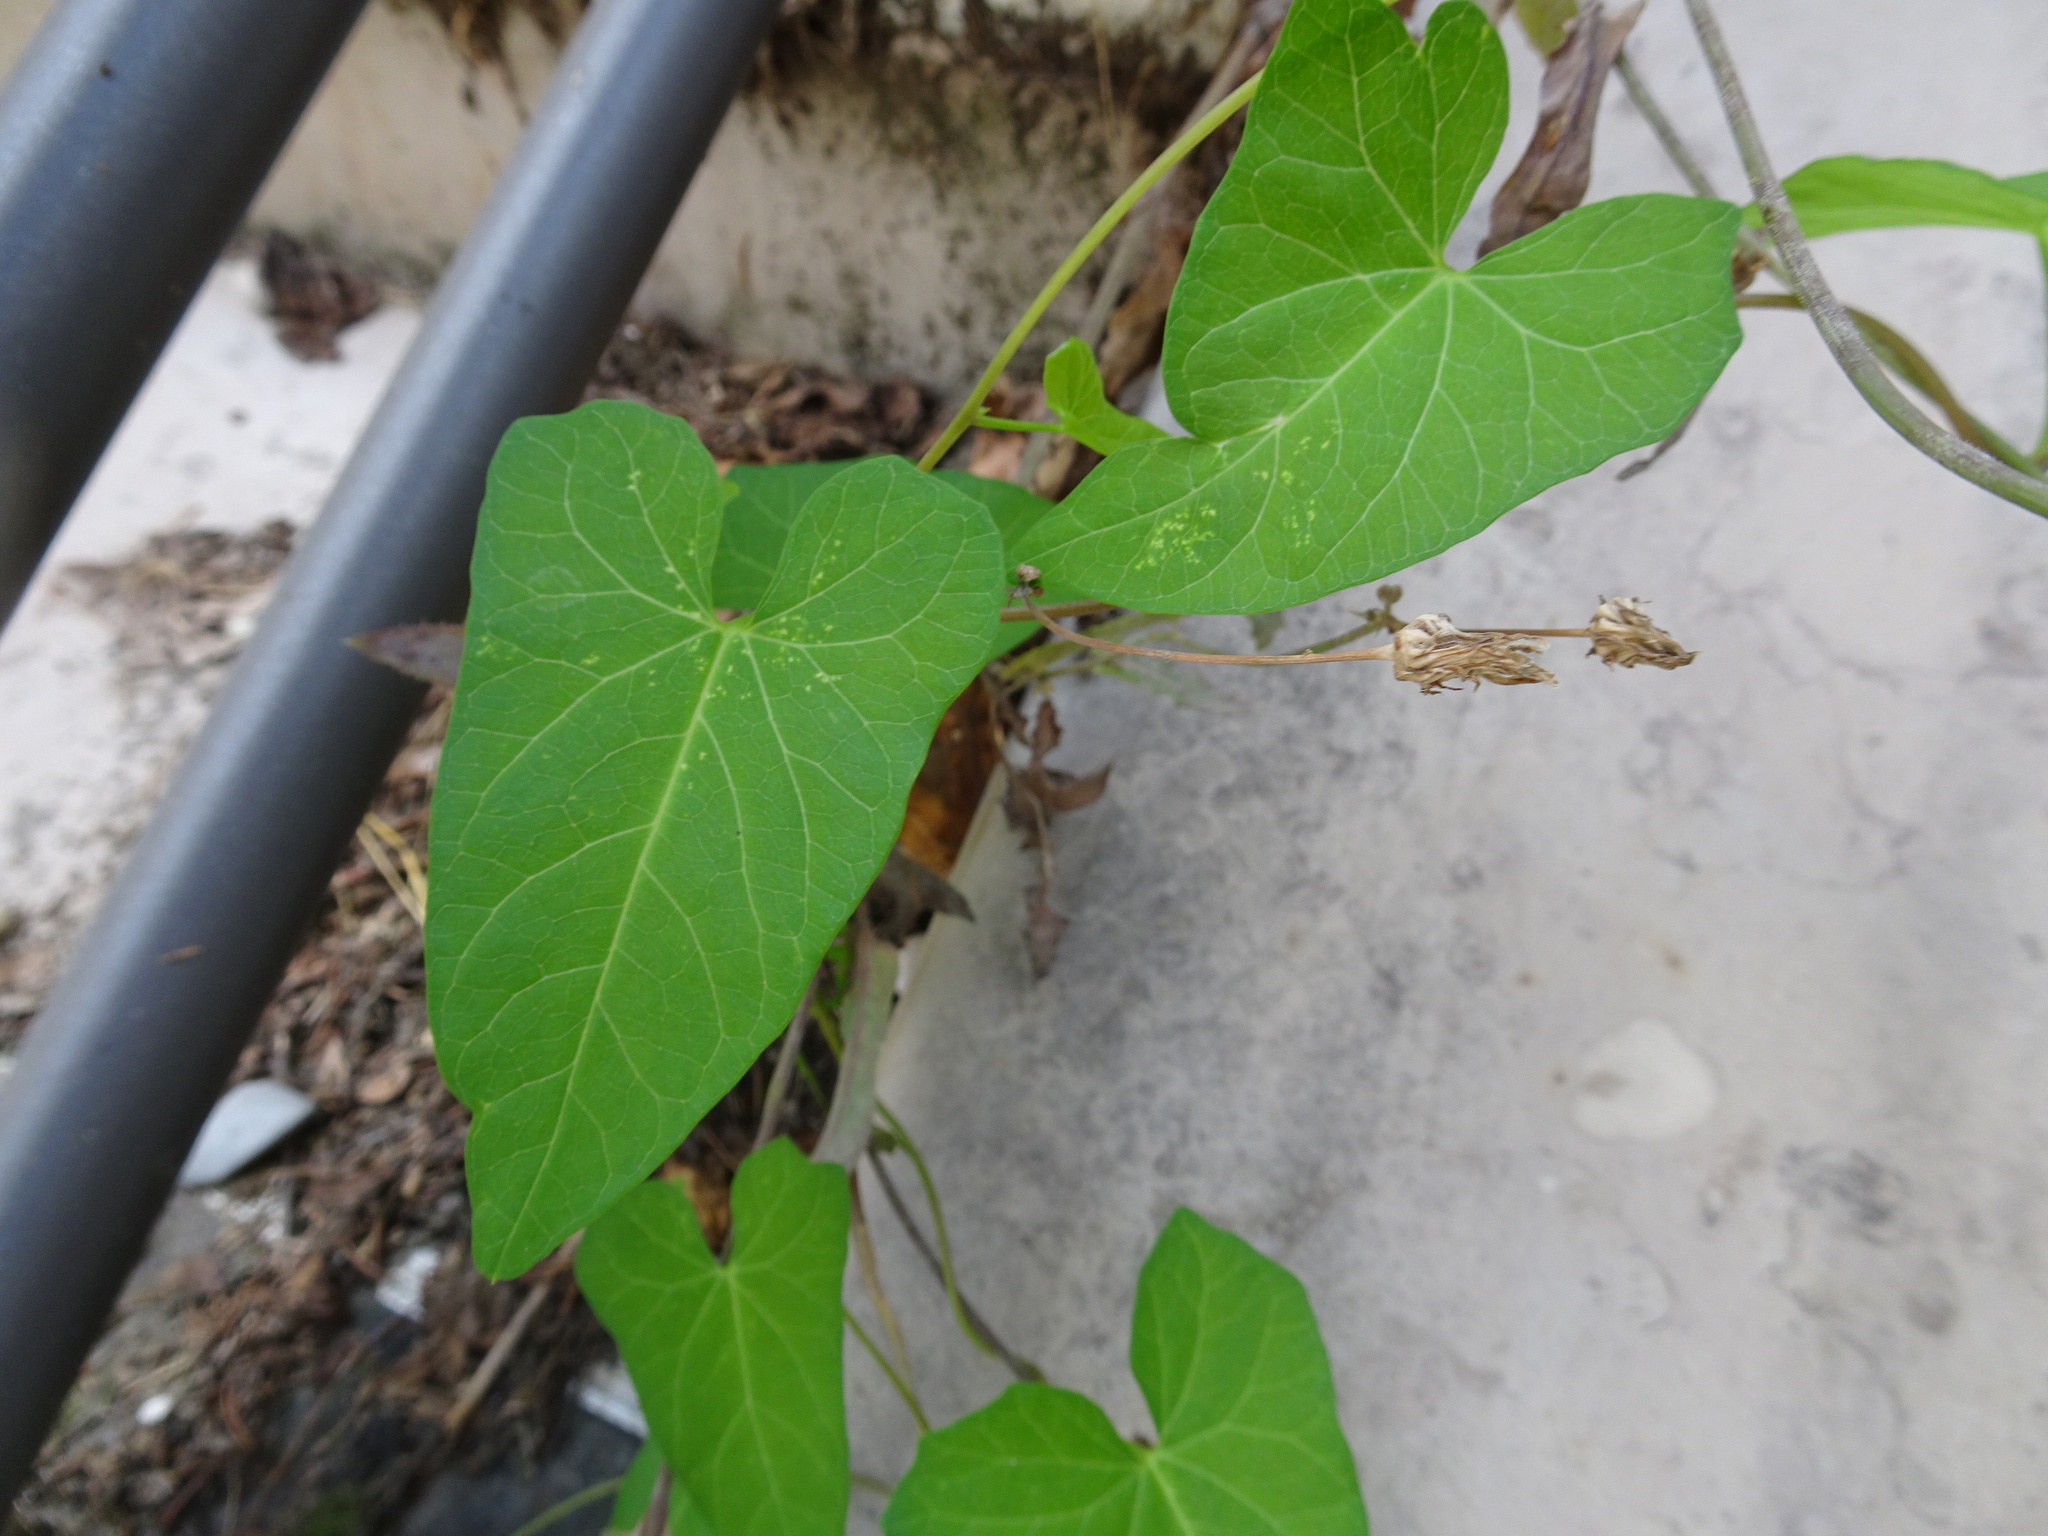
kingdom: Plantae
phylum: Tracheophyta
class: Magnoliopsida
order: Solanales
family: Convolvulaceae
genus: Calystegia
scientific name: Calystegia sepium
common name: Hedge bindweed
